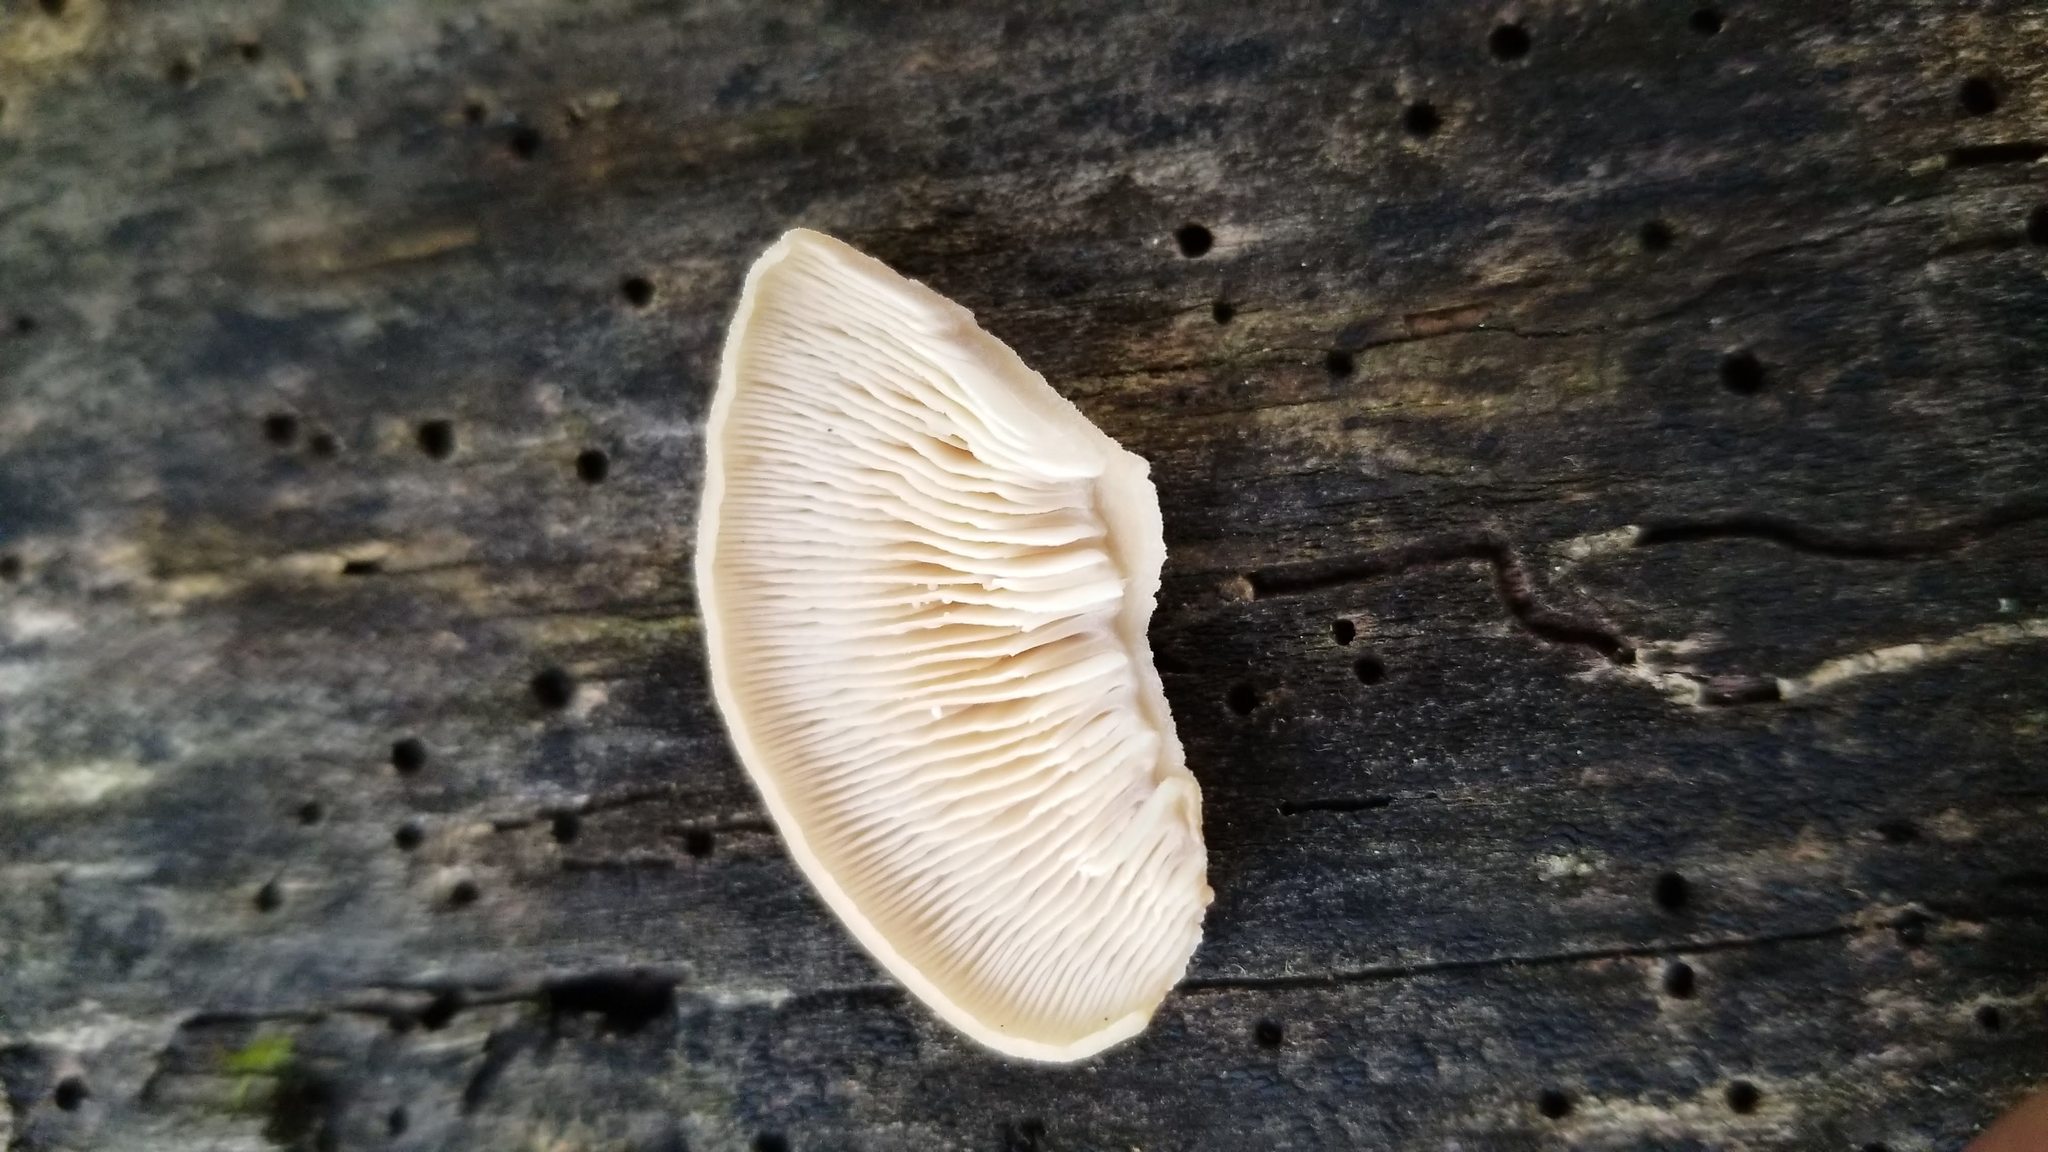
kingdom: Fungi
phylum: Basidiomycota
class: Agaricomycetes
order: Russulales
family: Auriscalpiaceae
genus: Lentinellus
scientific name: Lentinellus ursinus
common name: Bear lentinus
